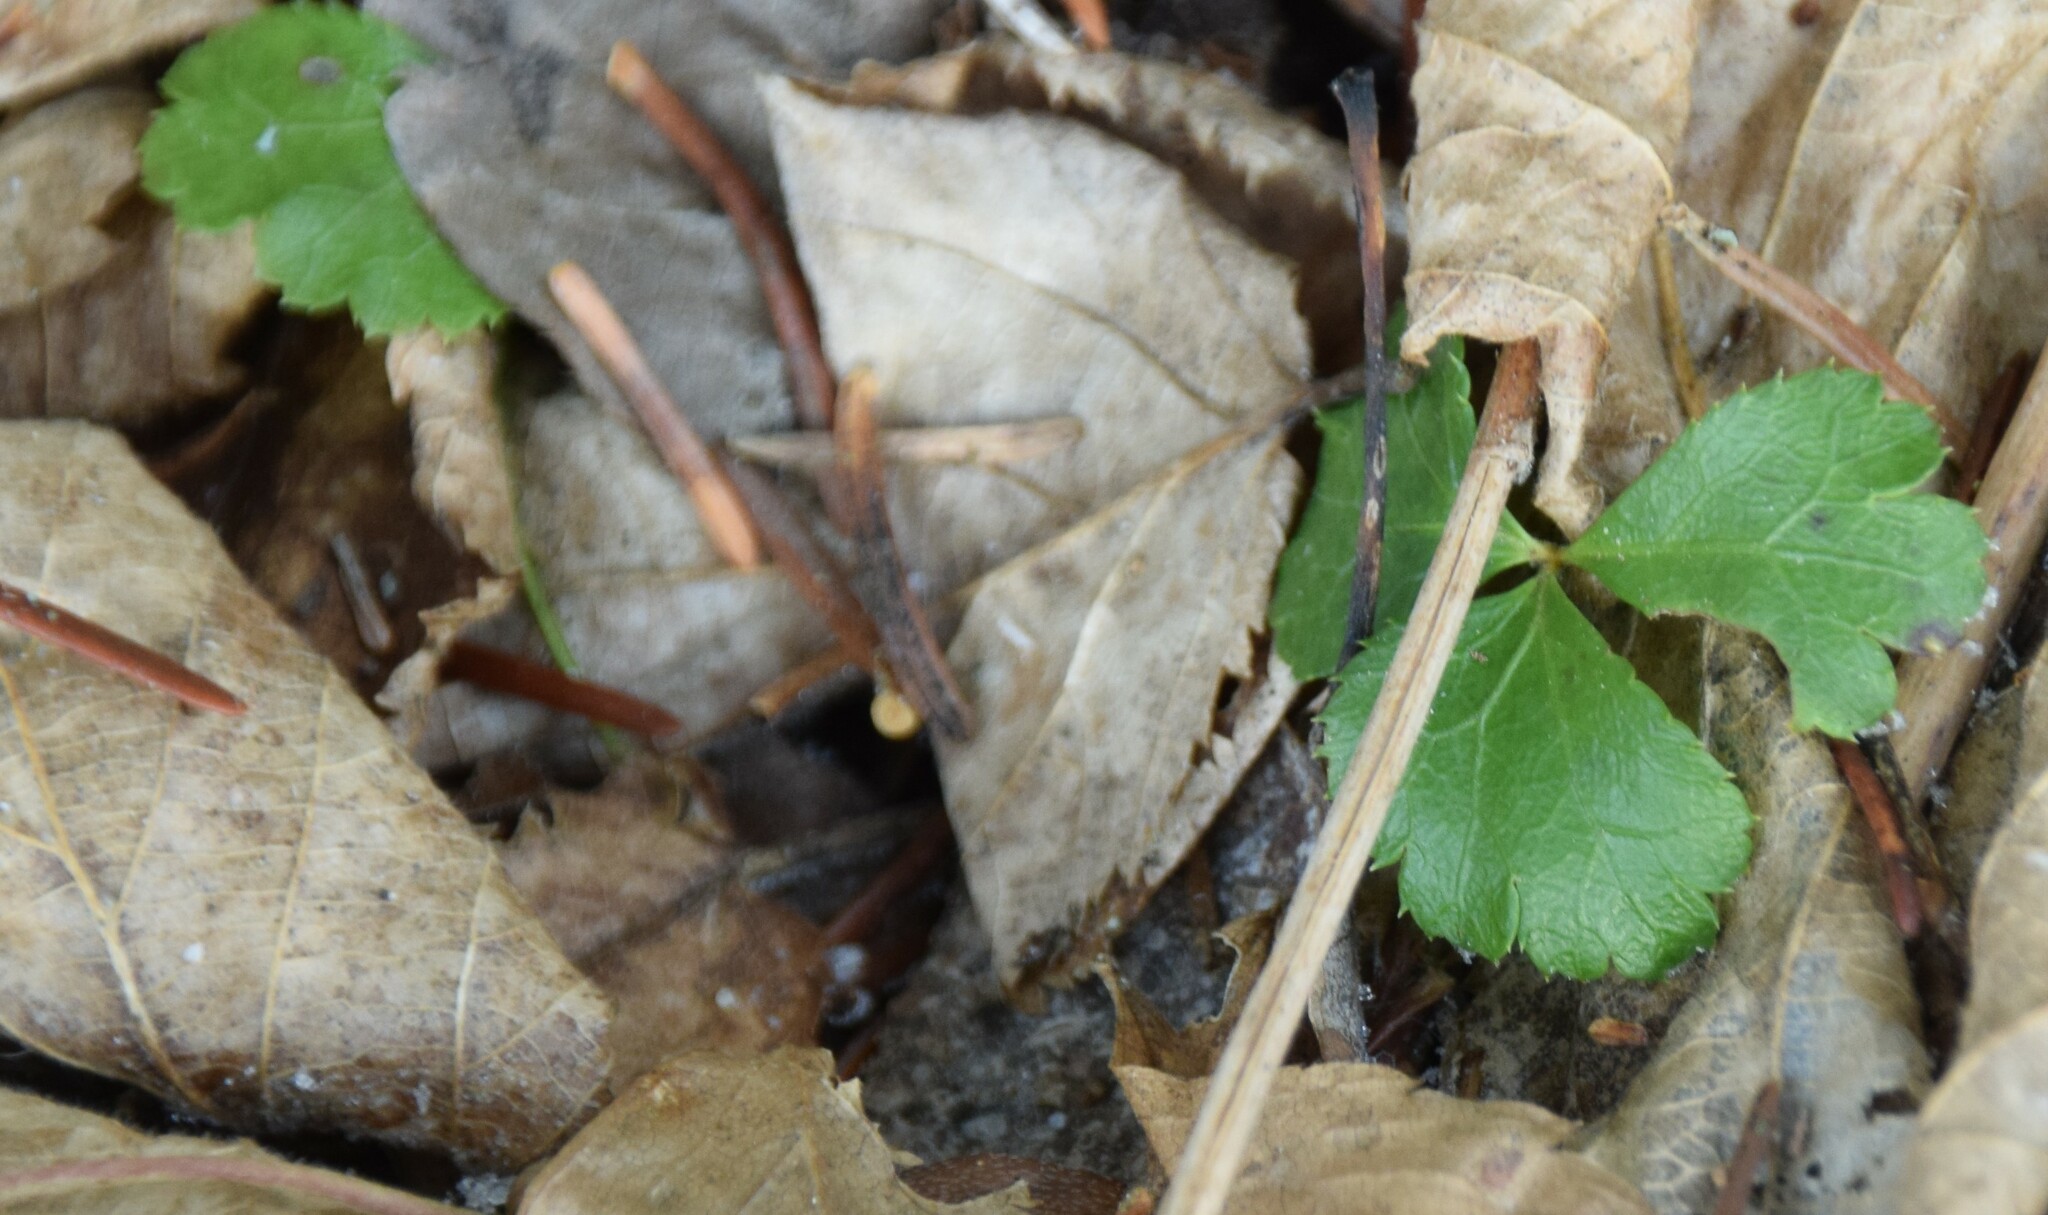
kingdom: Plantae
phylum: Tracheophyta
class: Magnoliopsida
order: Ranunculales
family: Ranunculaceae
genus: Coptis
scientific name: Coptis trifolia
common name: Canker-root
